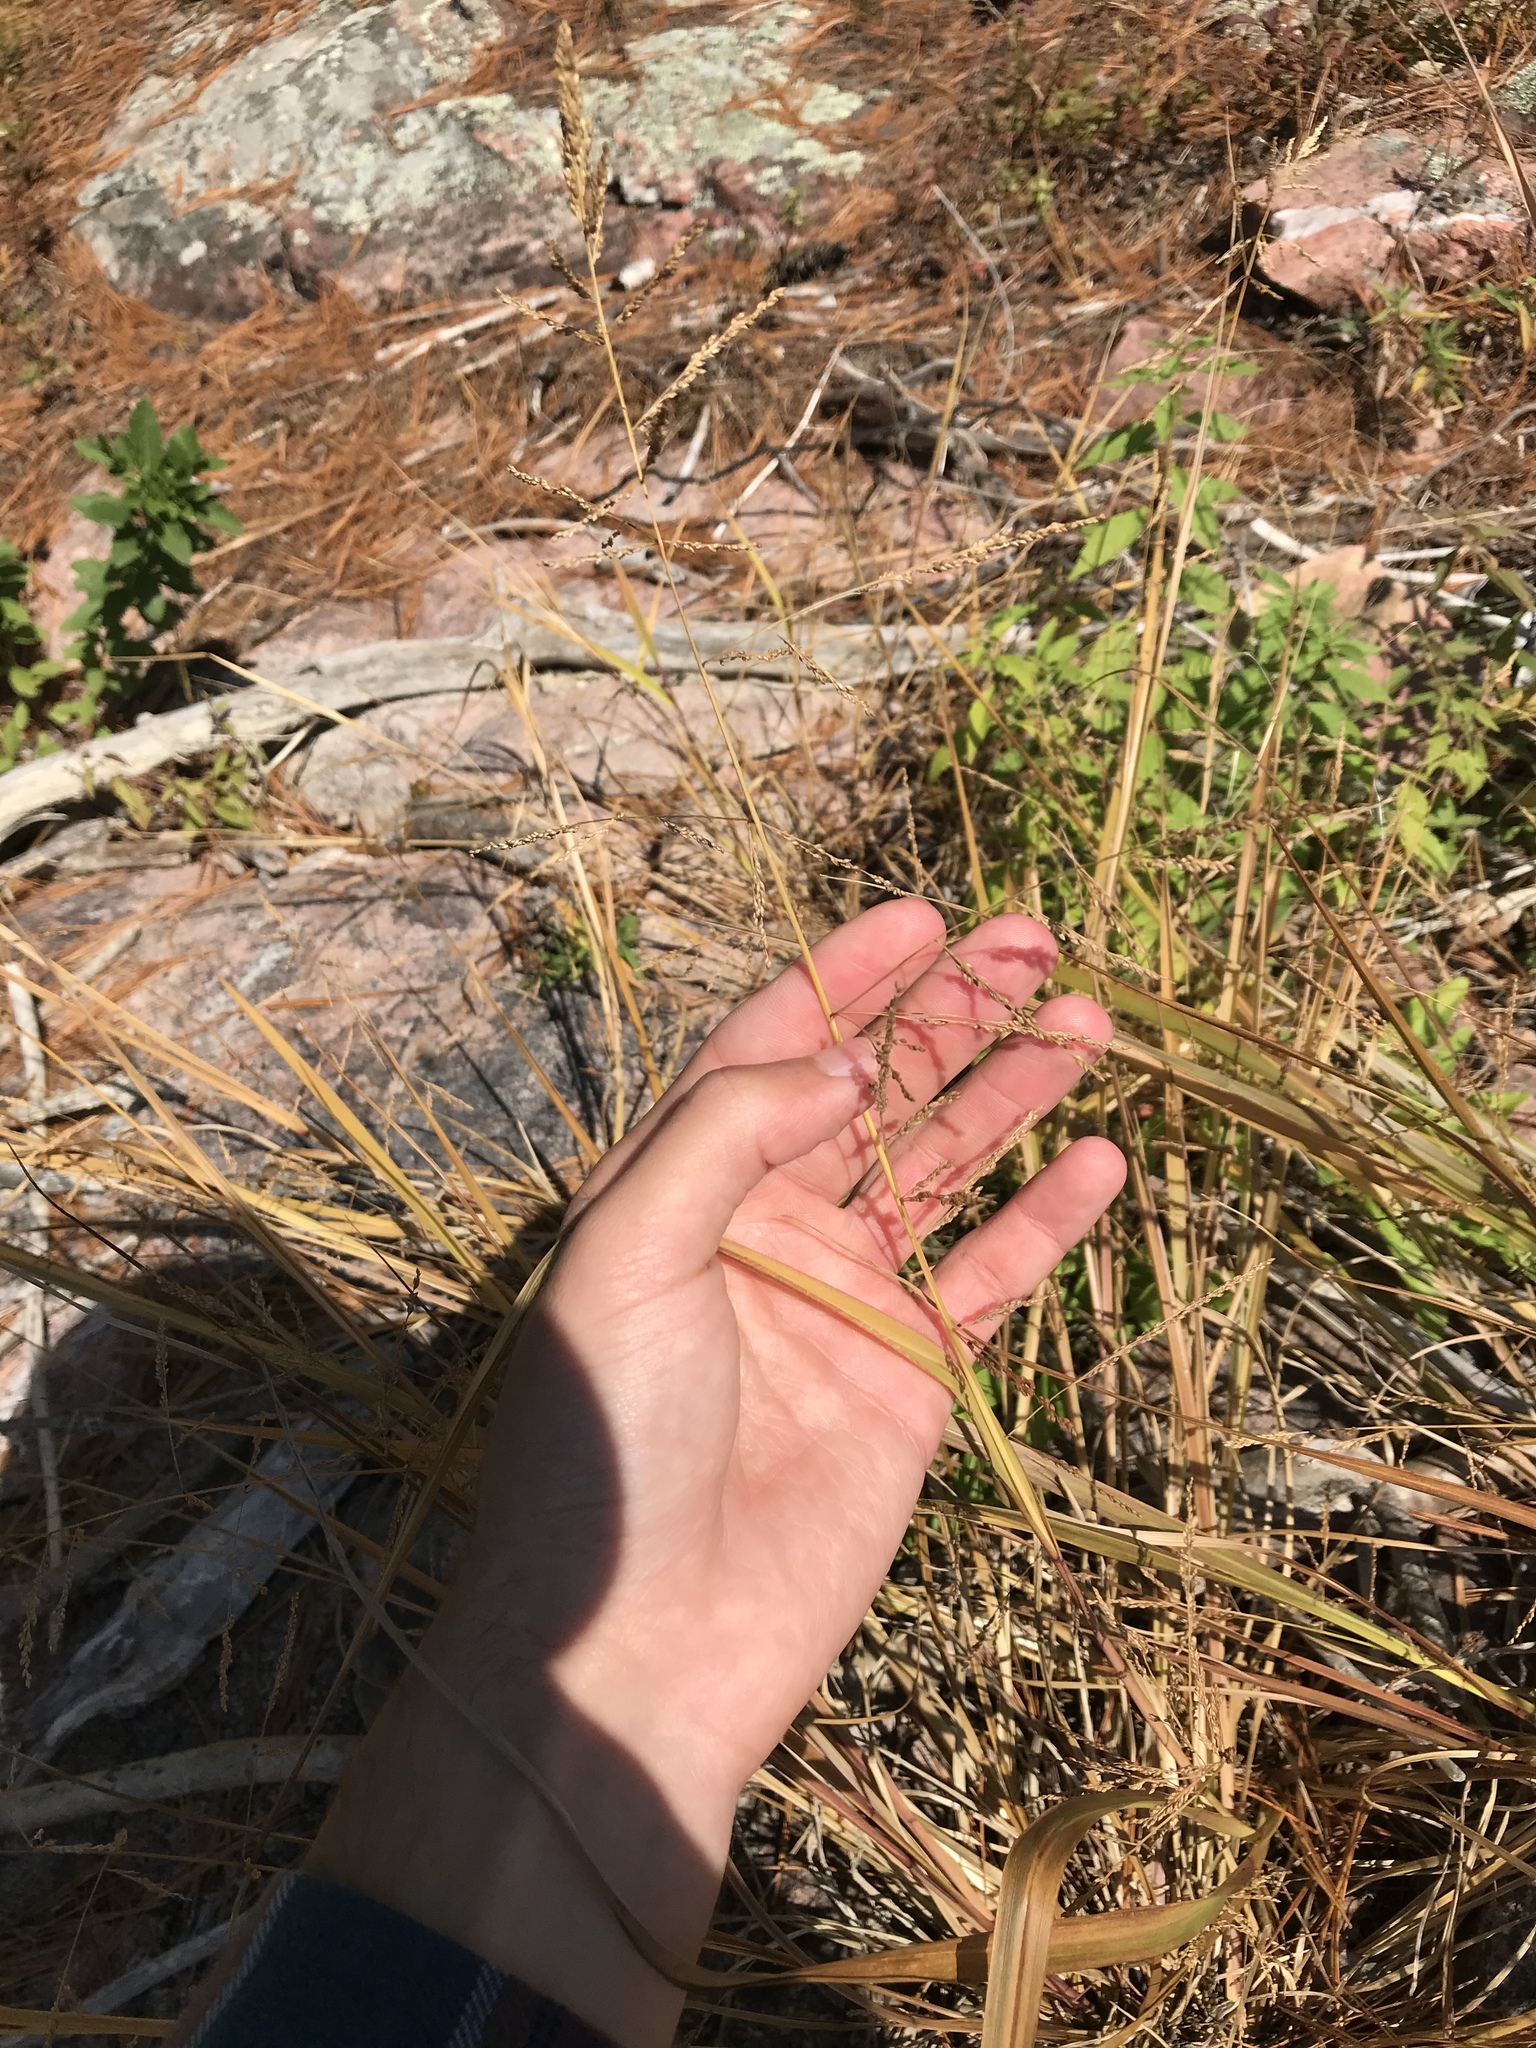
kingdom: Plantae
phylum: Tracheophyta
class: Liliopsida
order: Poales
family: Poaceae
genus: Coleataenia
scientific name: Coleataenia rigidula
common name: Redtop panicgrass
